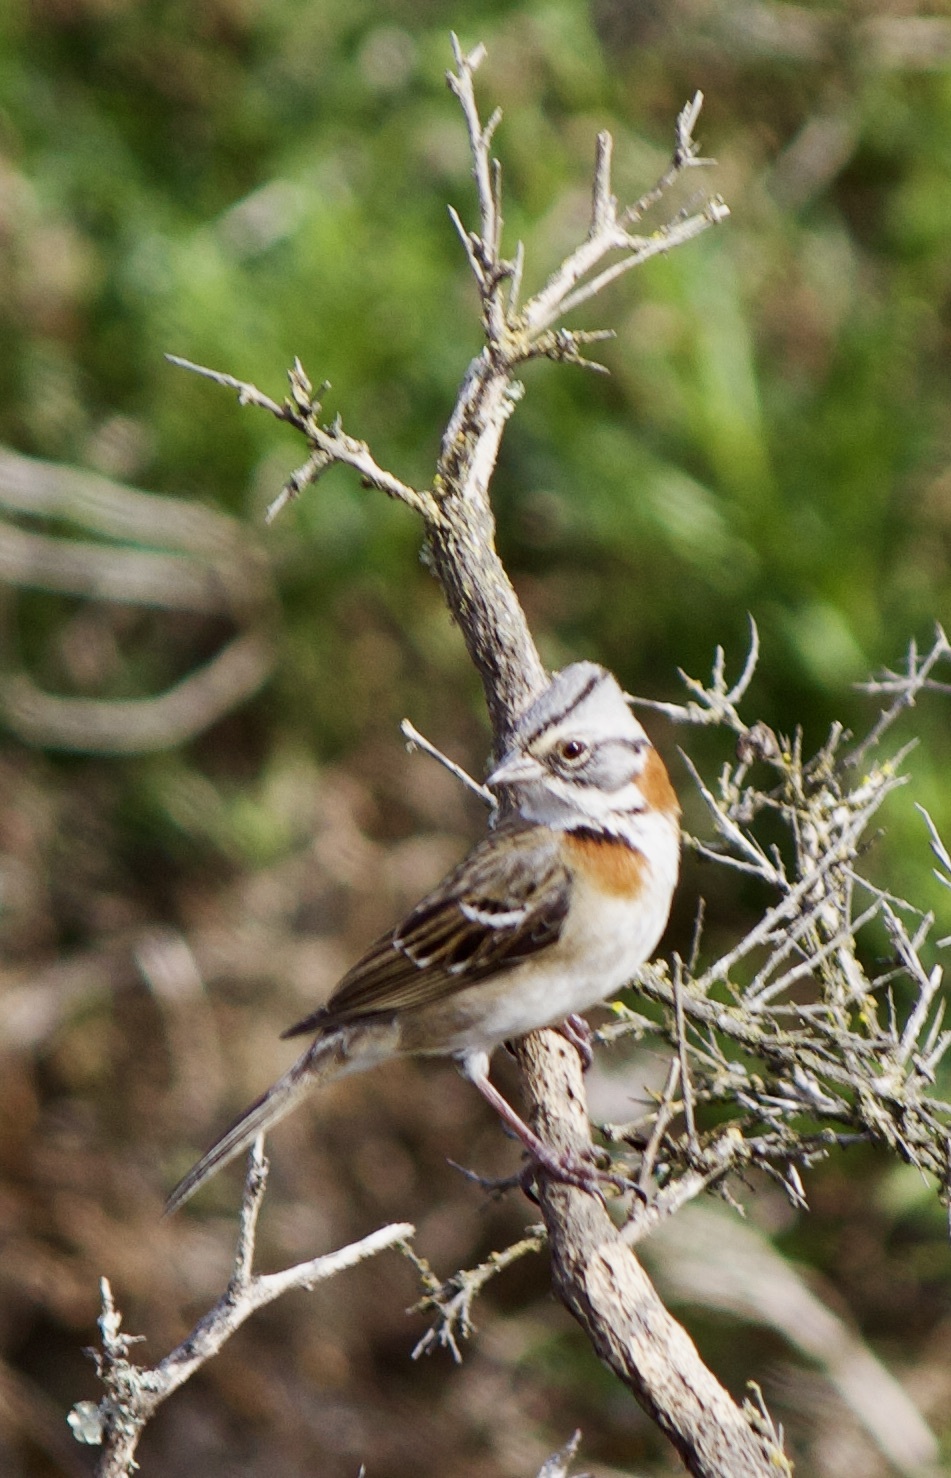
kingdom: Animalia
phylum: Chordata
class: Aves
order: Passeriformes
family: Passerellidae
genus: Zonotrichia
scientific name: Zonotrichia capensis
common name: Rufous-collared sparrow
